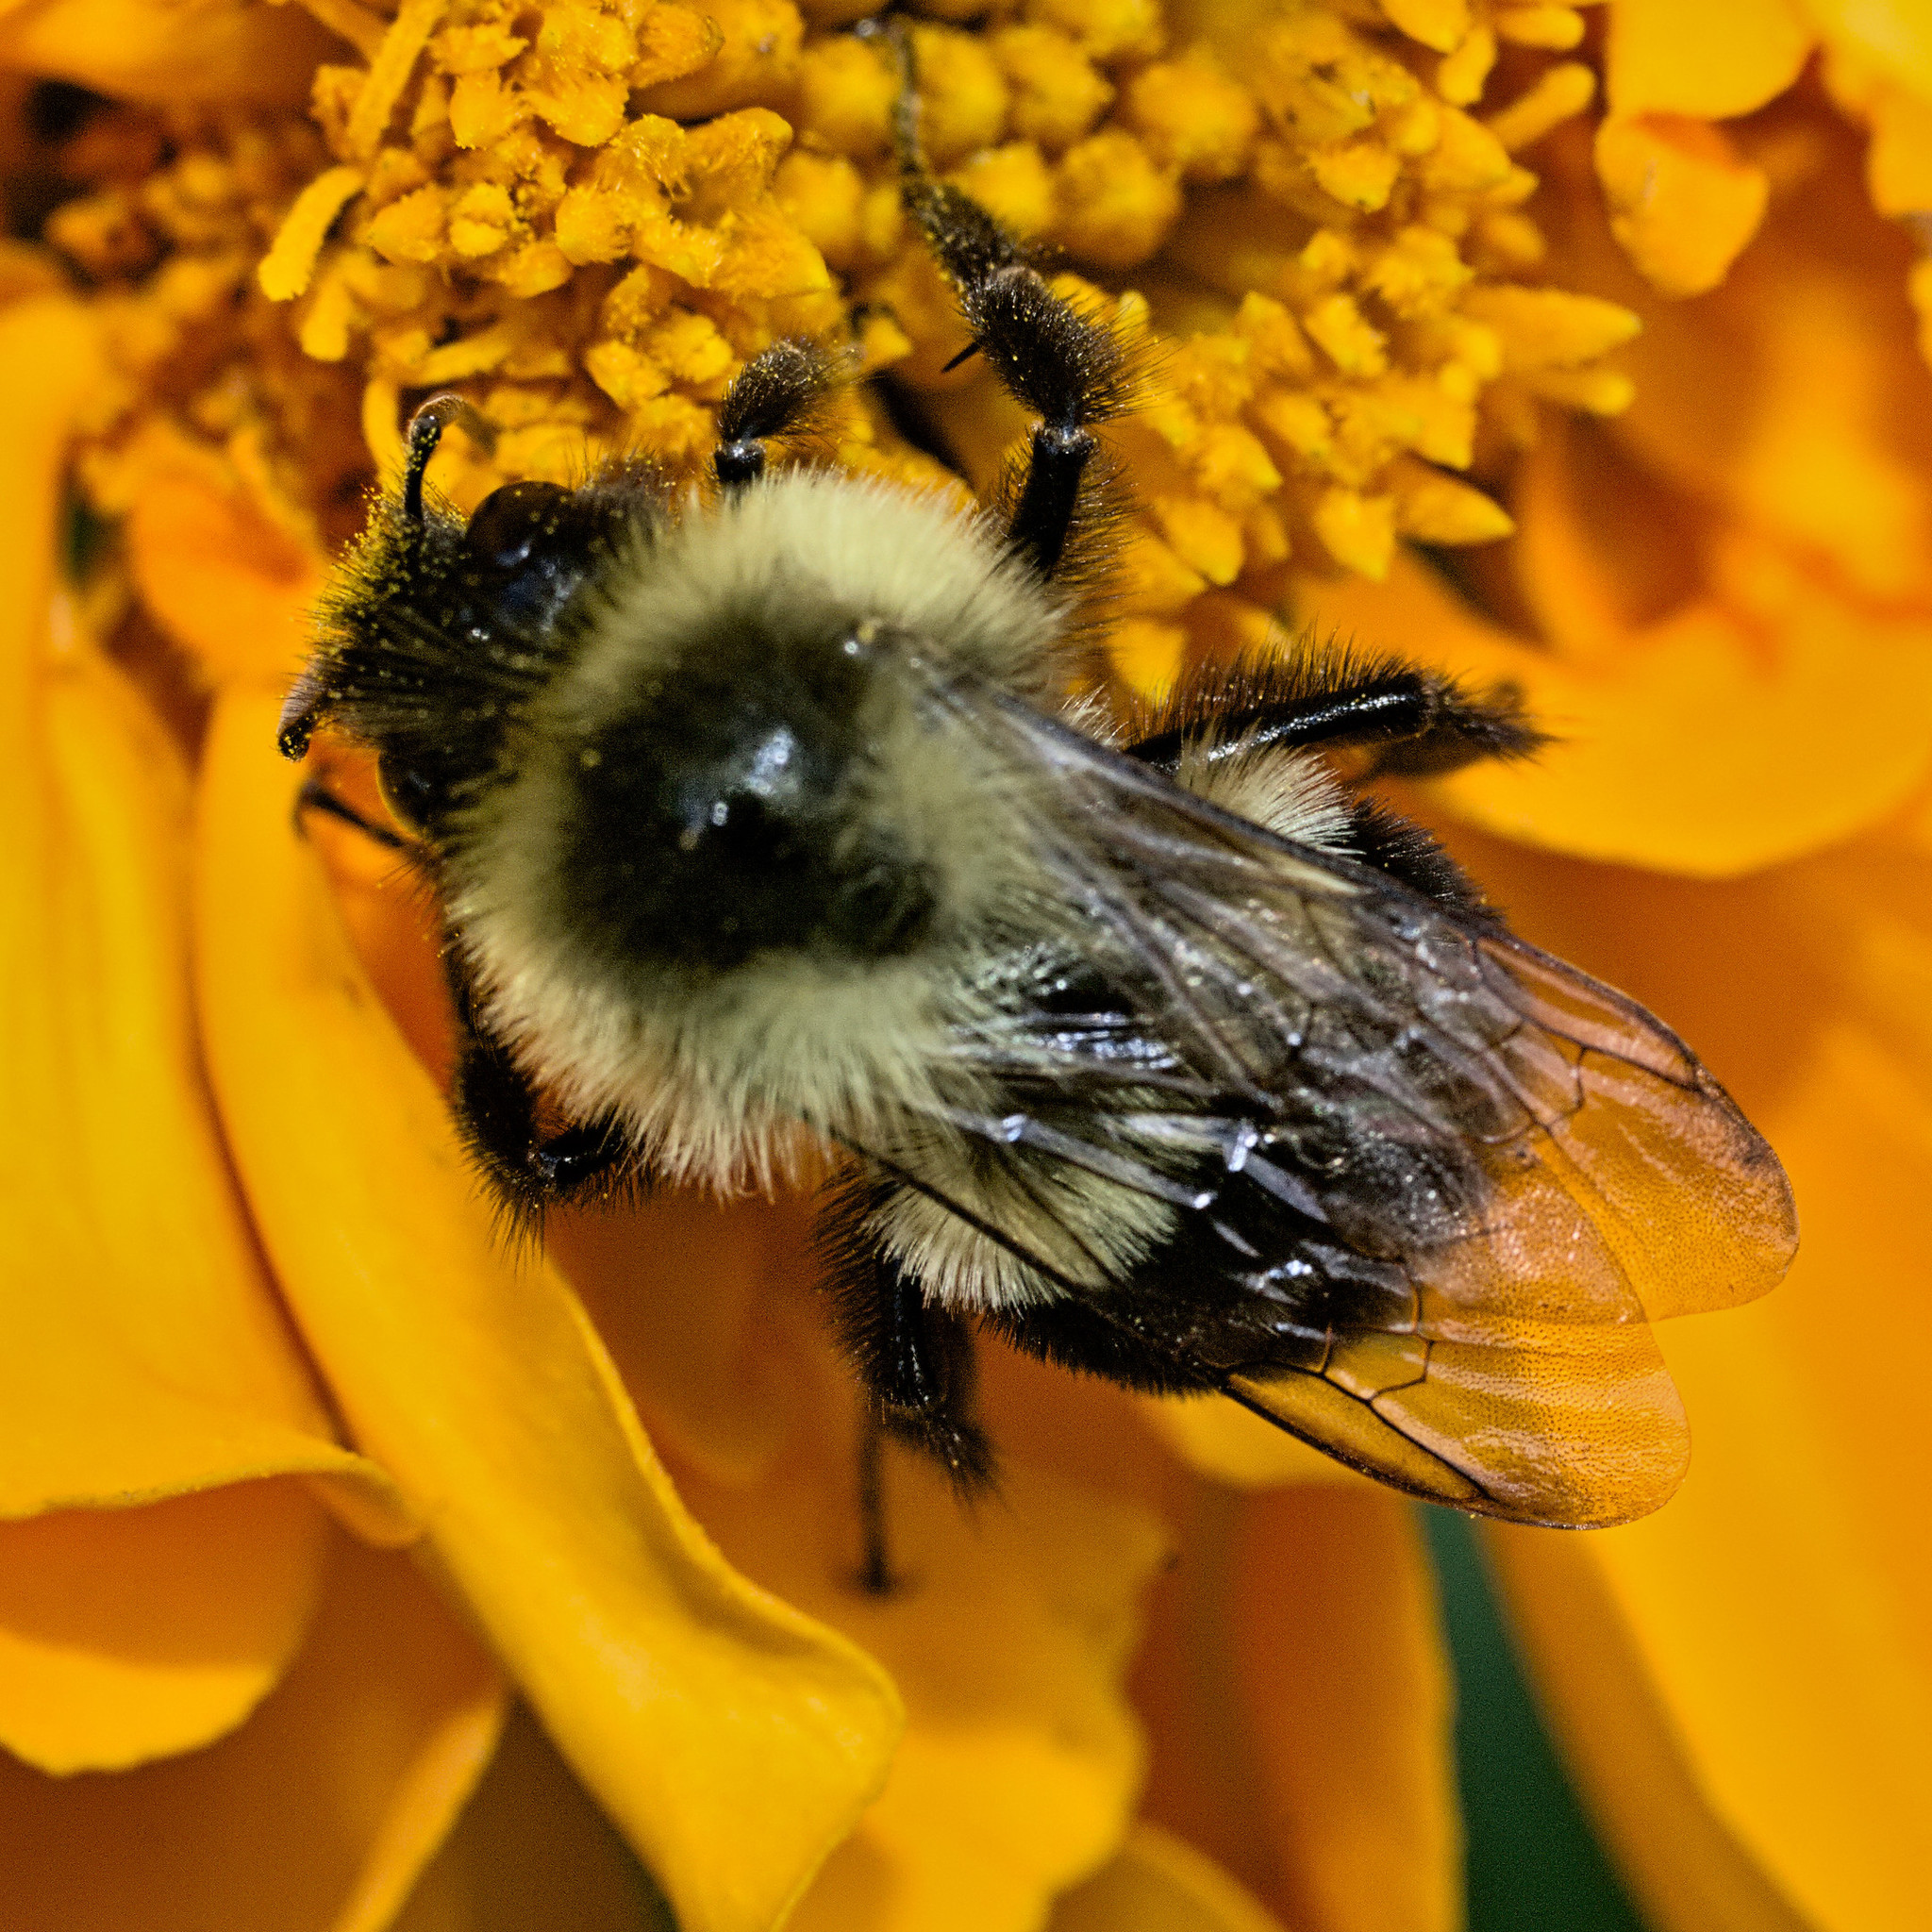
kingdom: Animalia
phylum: Arthropoda
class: Insecta
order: Hymenoptera
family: Apidae
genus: Bombus
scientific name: Bombus impatiens
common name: Common eastern bumble bee
